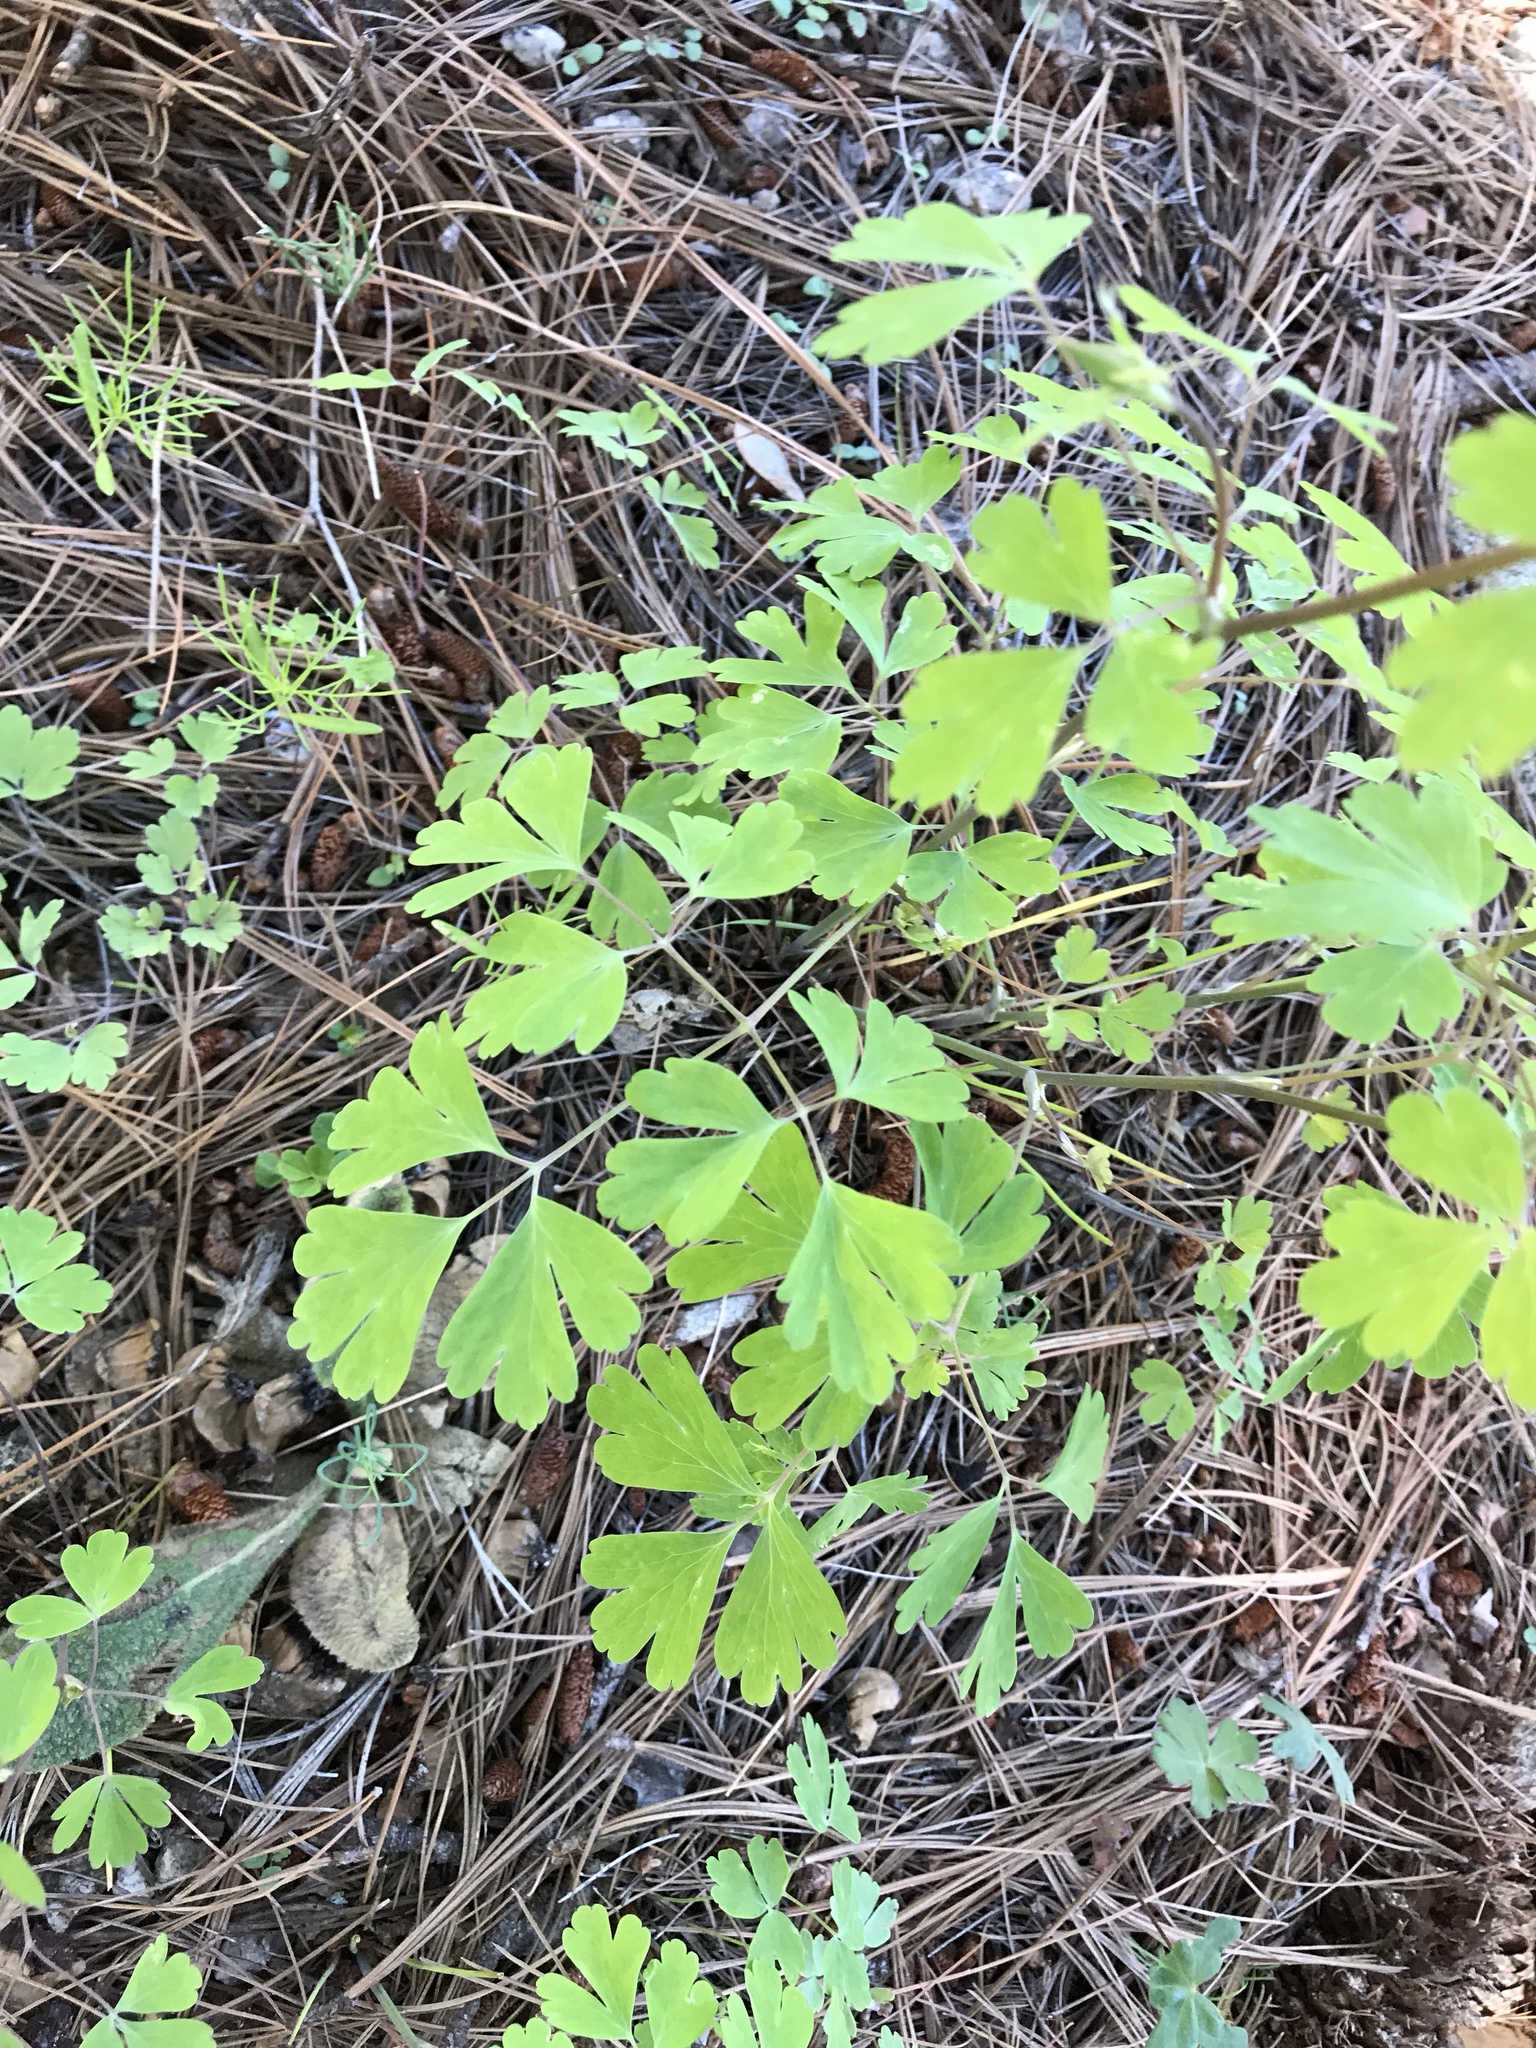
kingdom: Plantae
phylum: Tracheophyta
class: Magnoliopsida
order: Ranunculales
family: Ranunculaceae
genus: Aquilegia
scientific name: Aquilegia chrysantha
